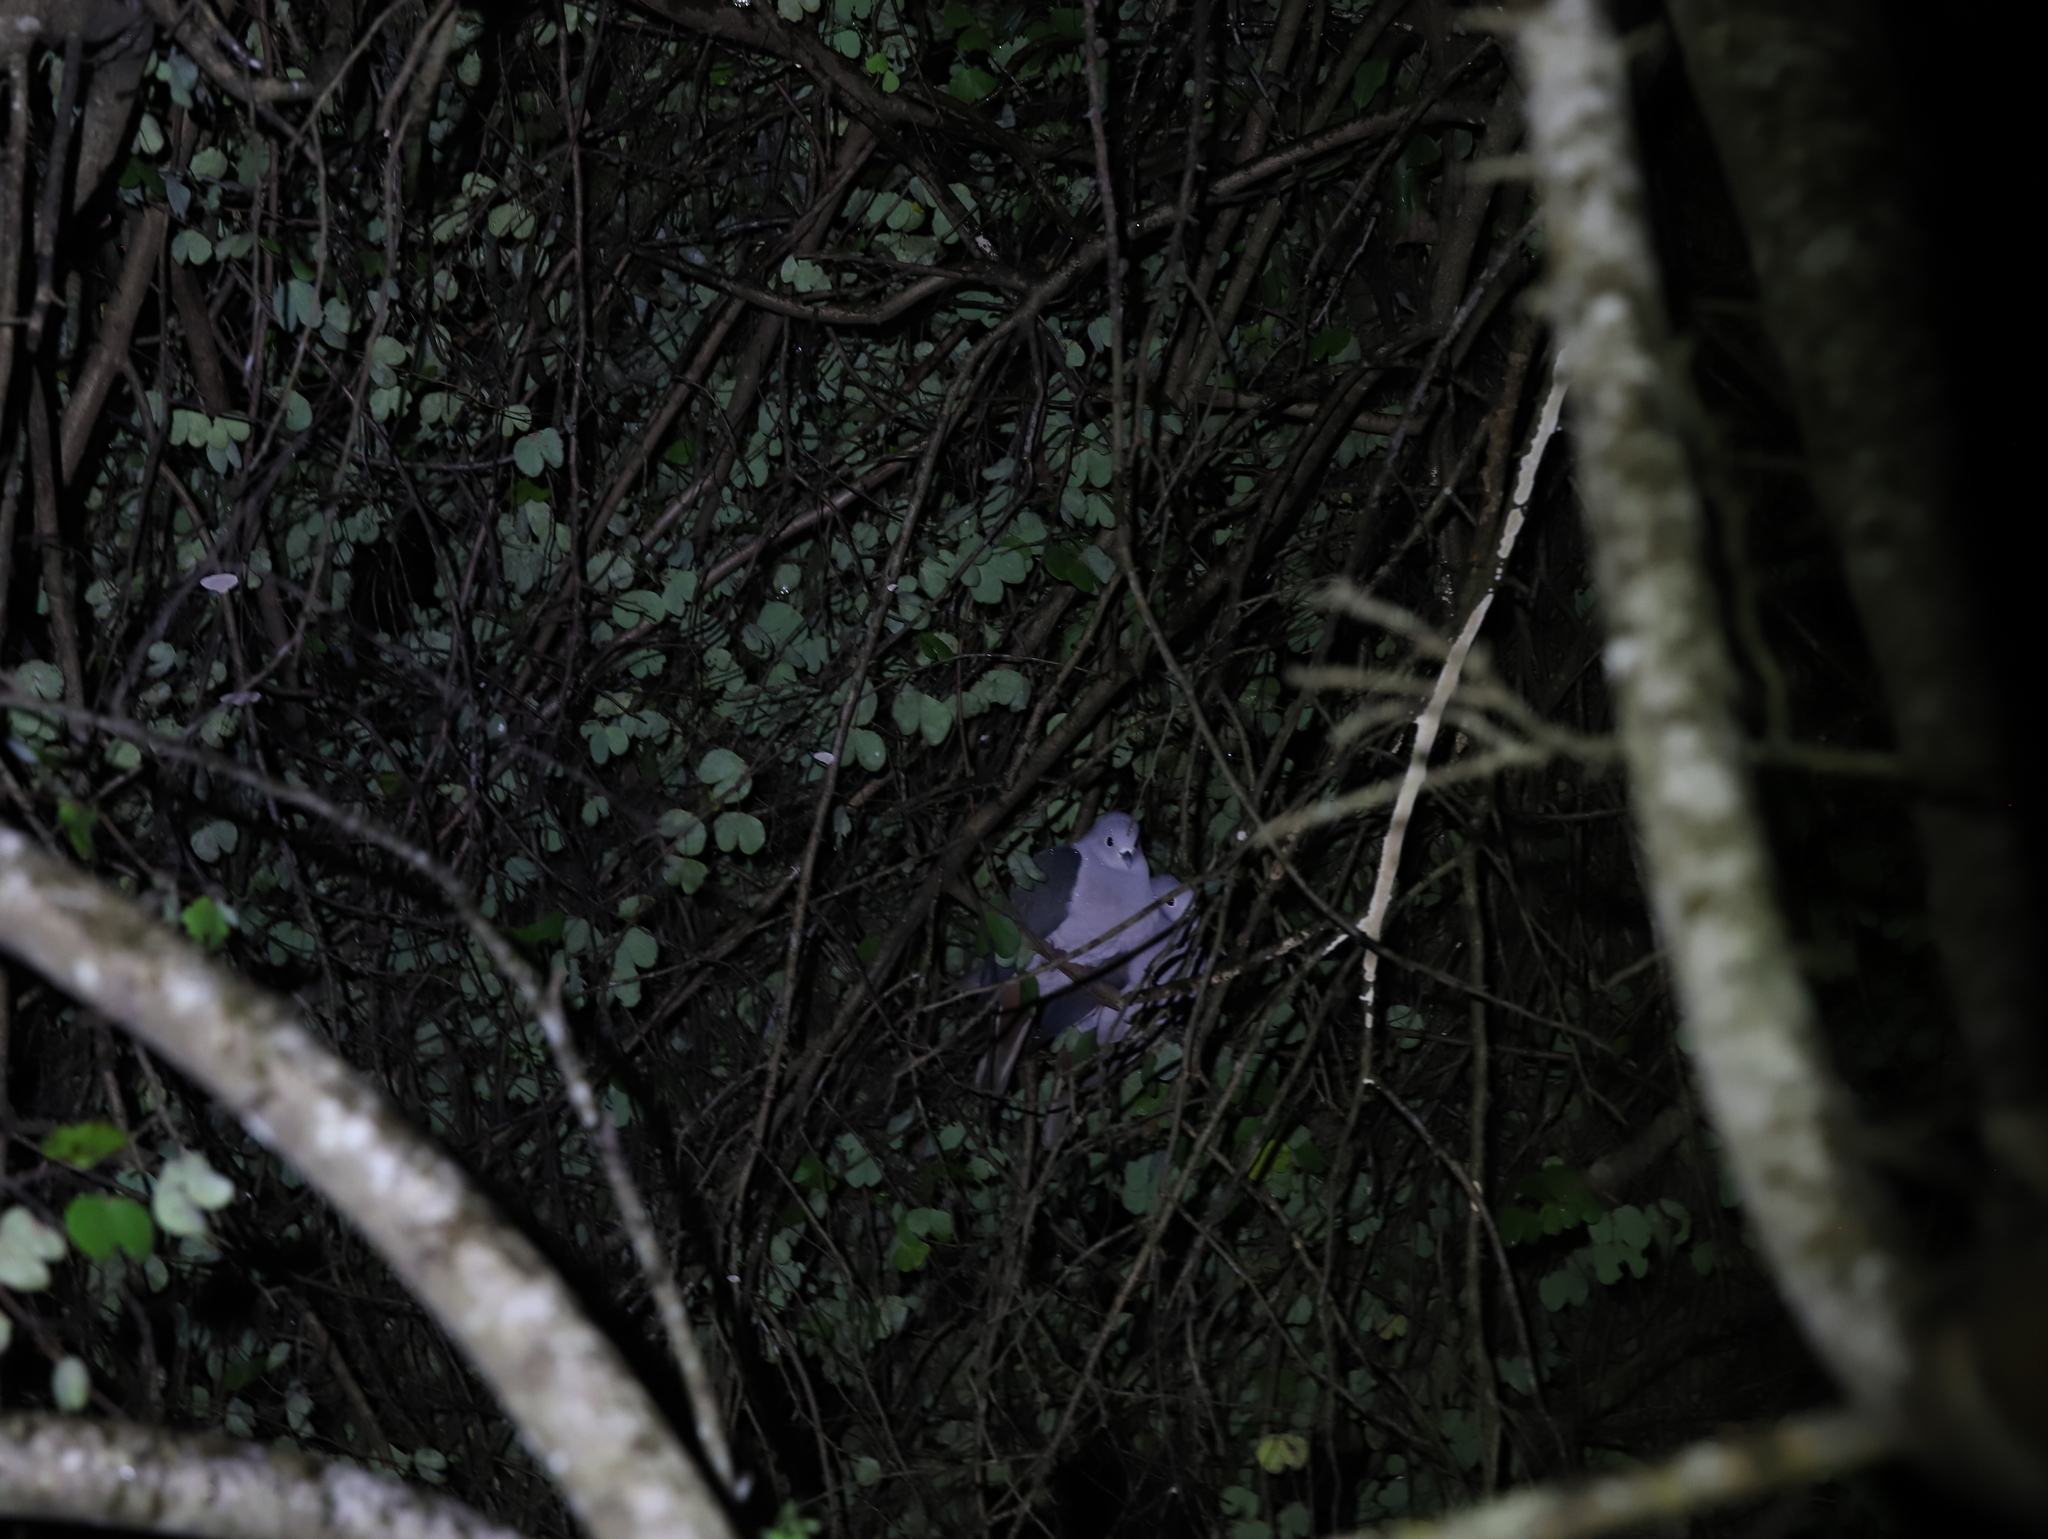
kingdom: Animalia
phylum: Chordata
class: Aves
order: Columbiformes
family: Columbidae
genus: Ducula
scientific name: Ducula aenea
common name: Green imperial pigeon
